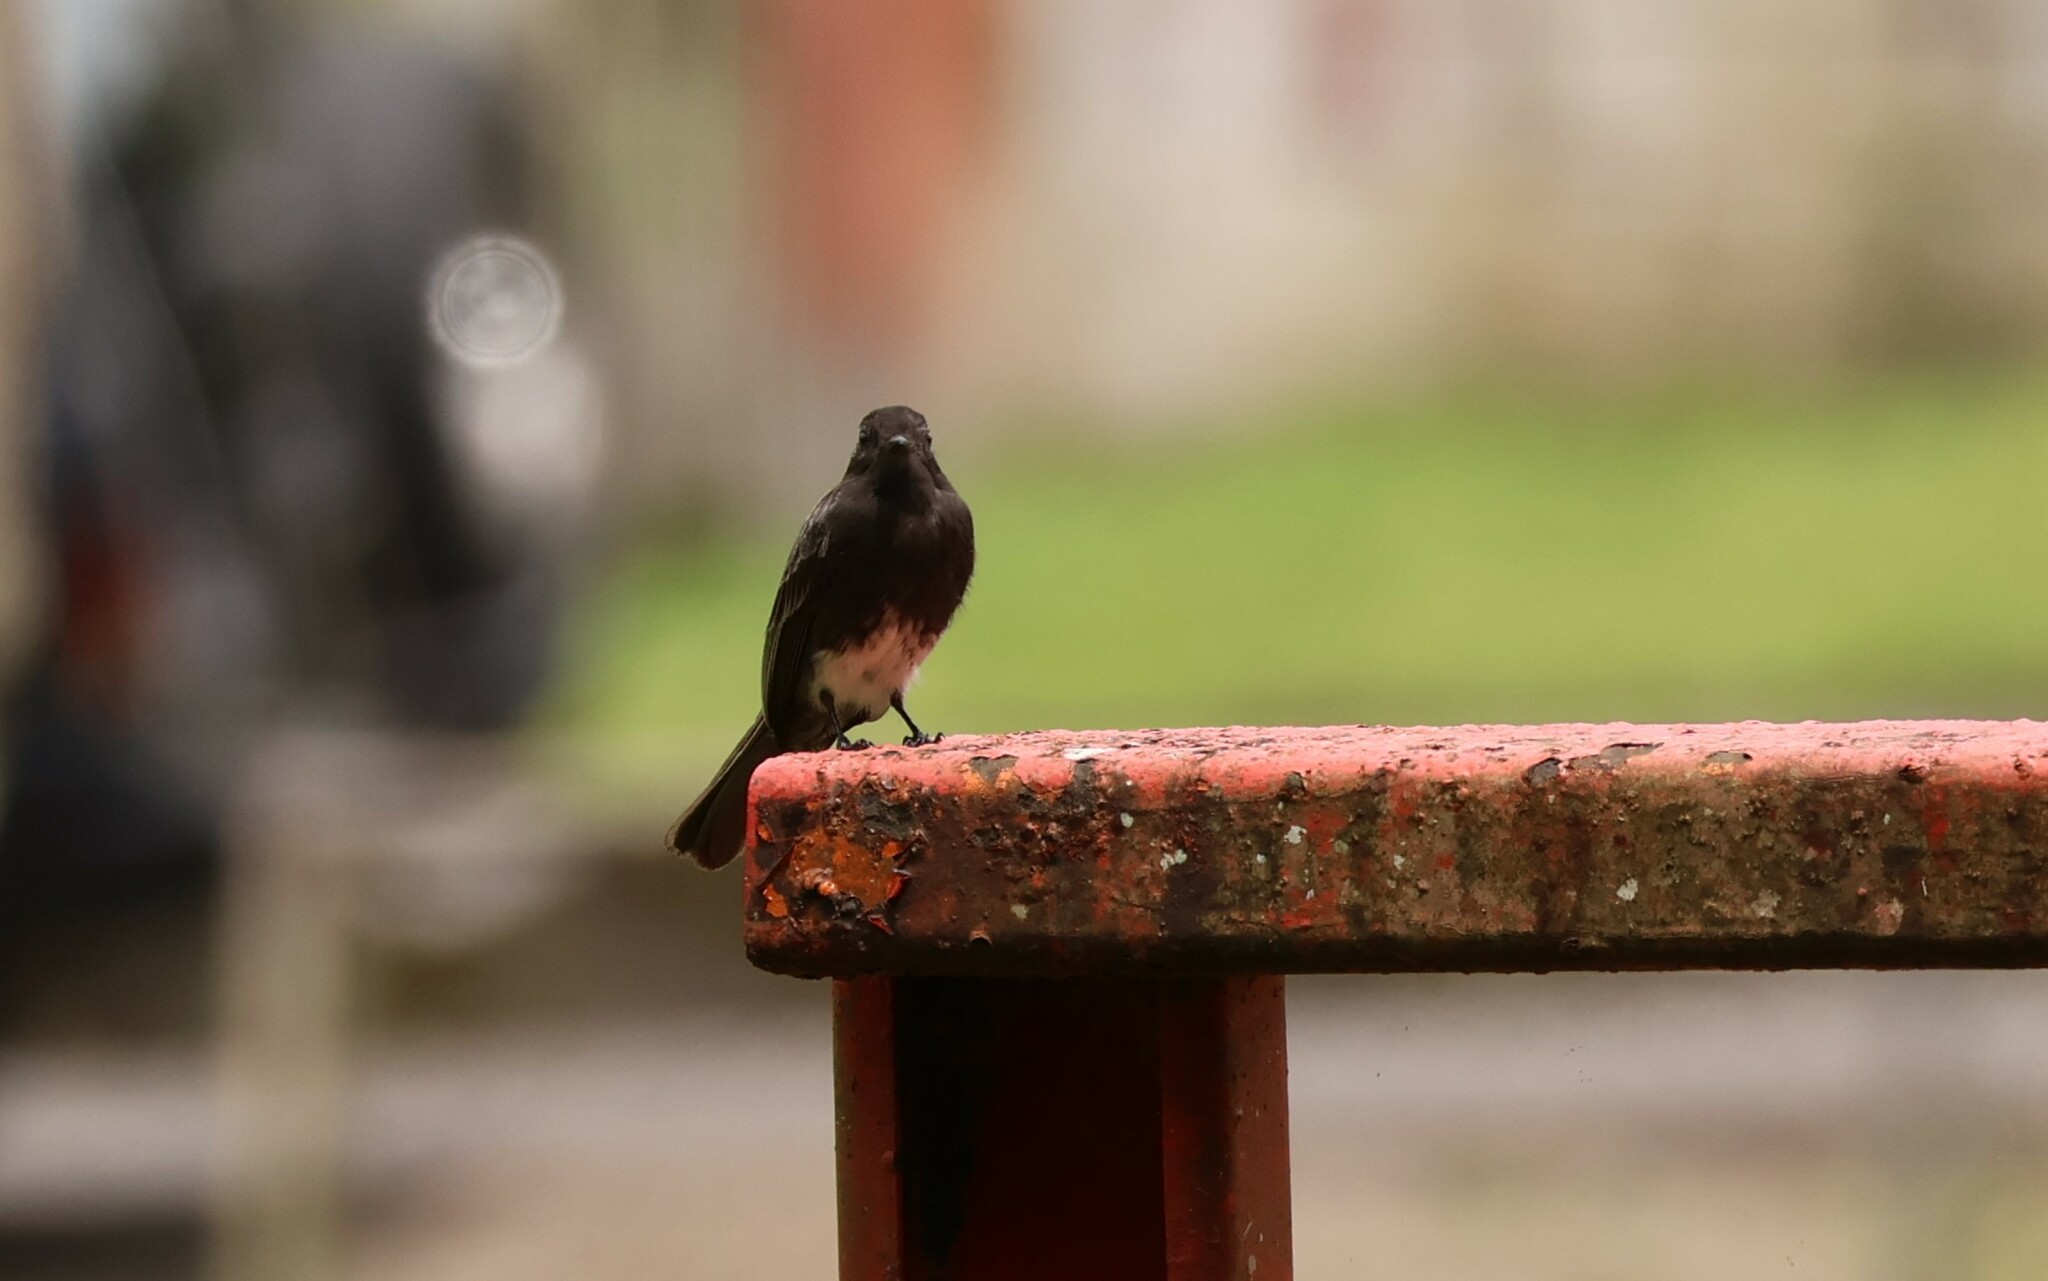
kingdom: Animalia
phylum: Chordata
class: Aves
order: Passeriformes
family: Tyrannidae
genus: Sayornis
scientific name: Sayornis nigricans
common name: Black phoebe
